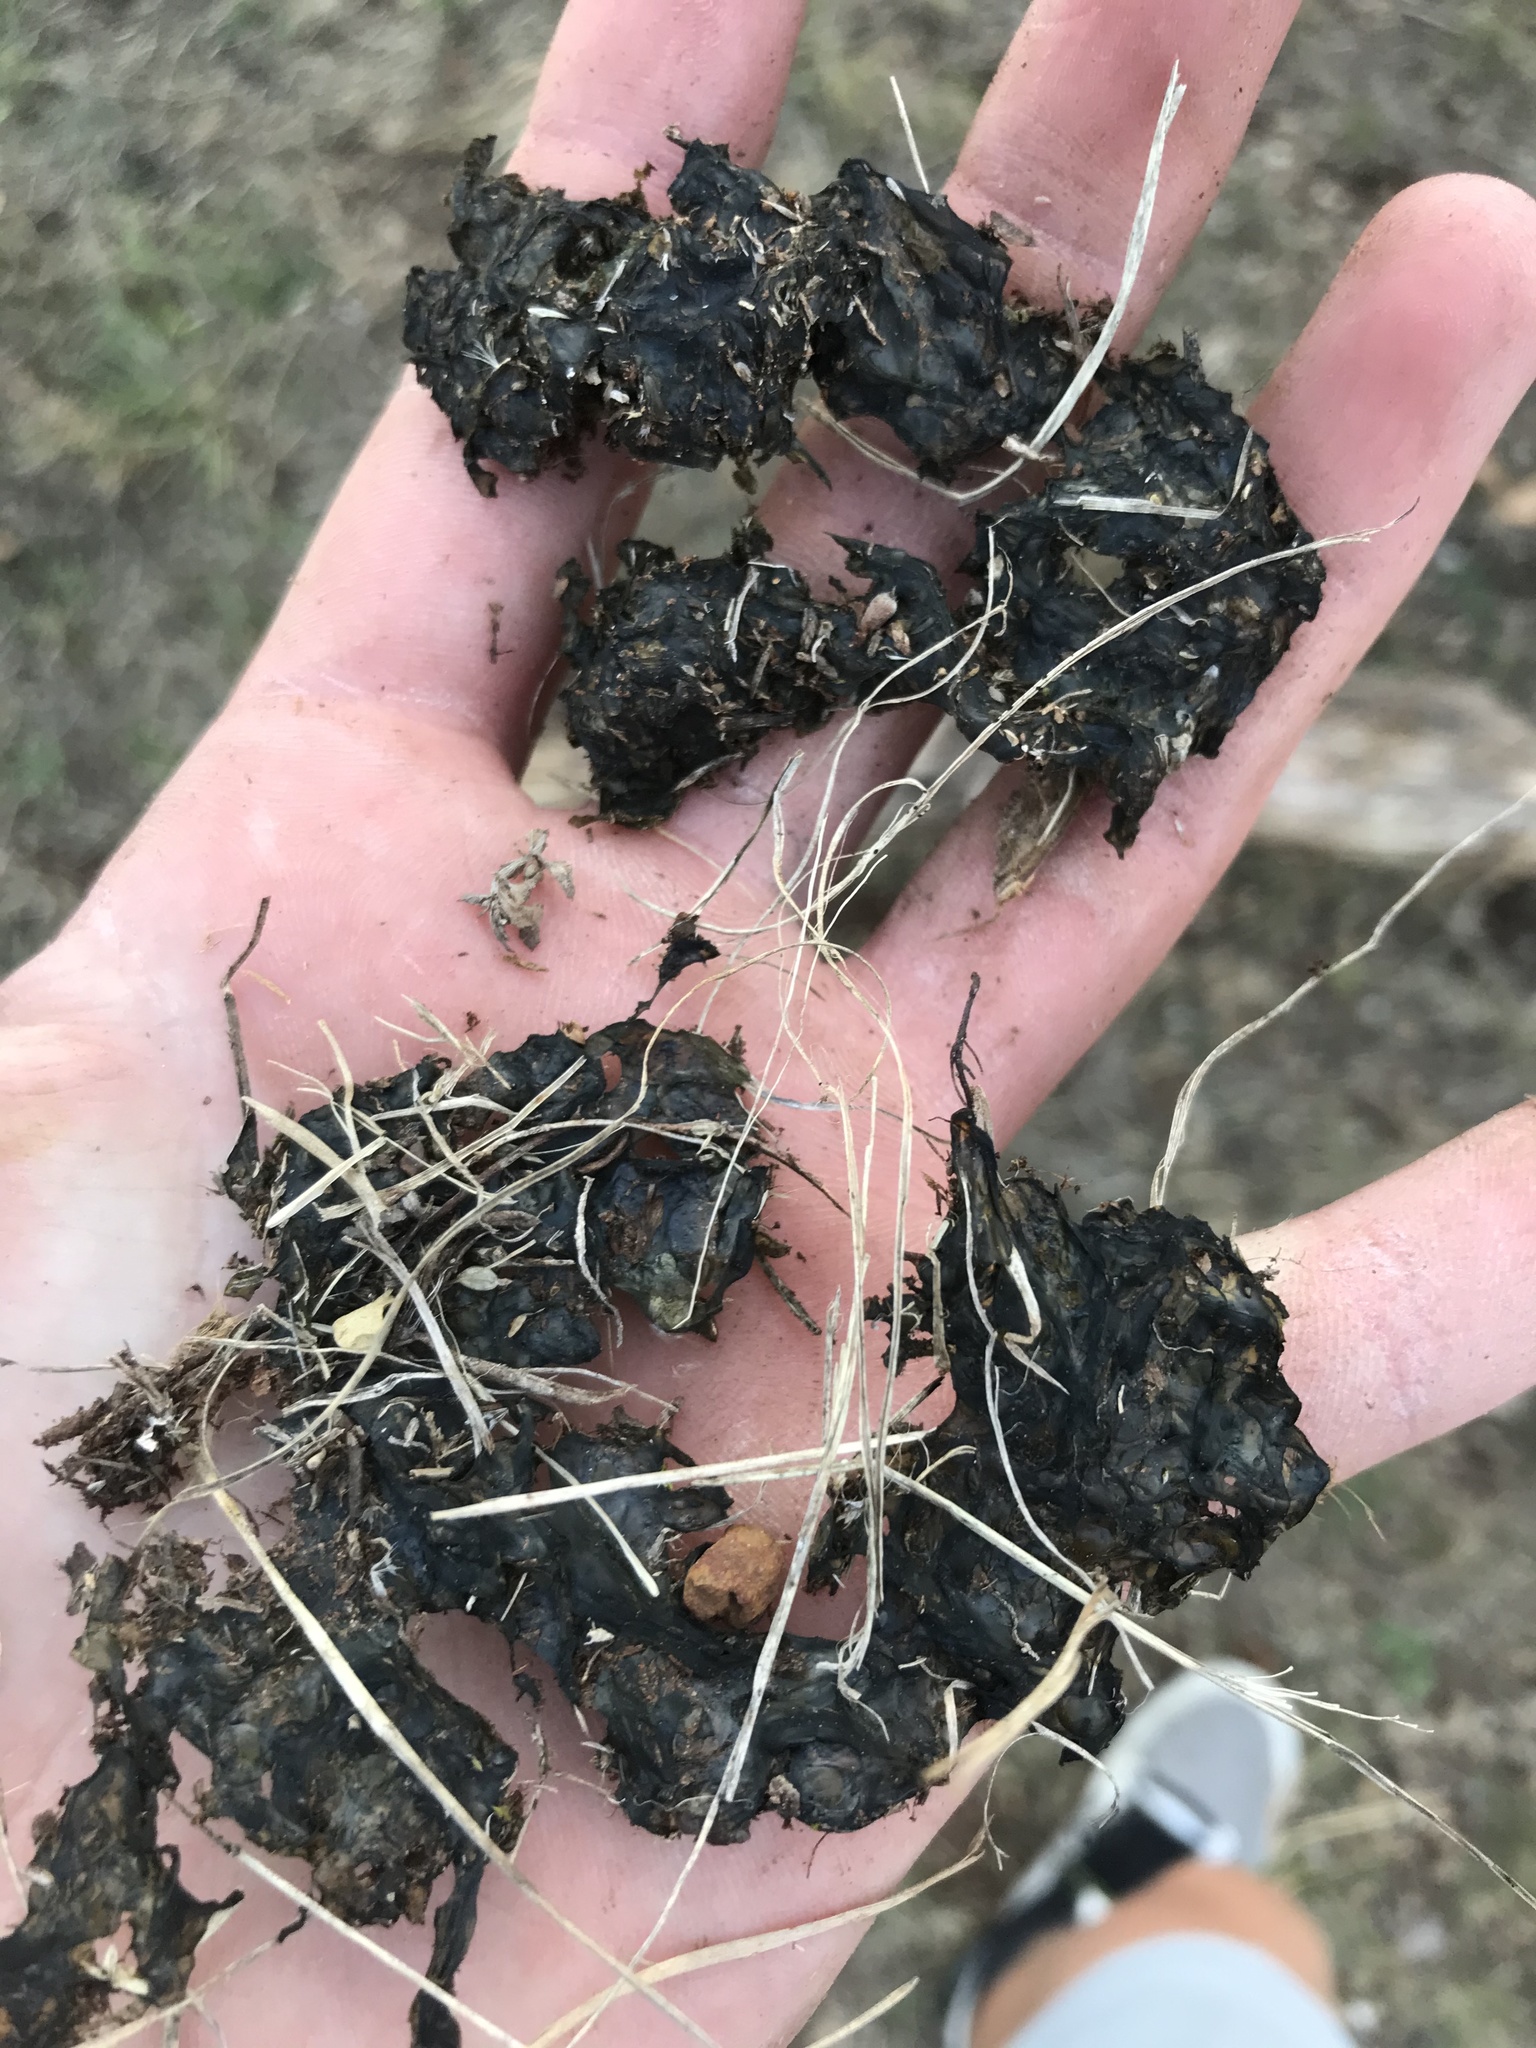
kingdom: Bacteria
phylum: Cyanobacteria
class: Cyanobacteriia
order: Cyanobacteriales
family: Nostocaceae
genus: Nostoc
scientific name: Nostoc commune
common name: Star jelly
